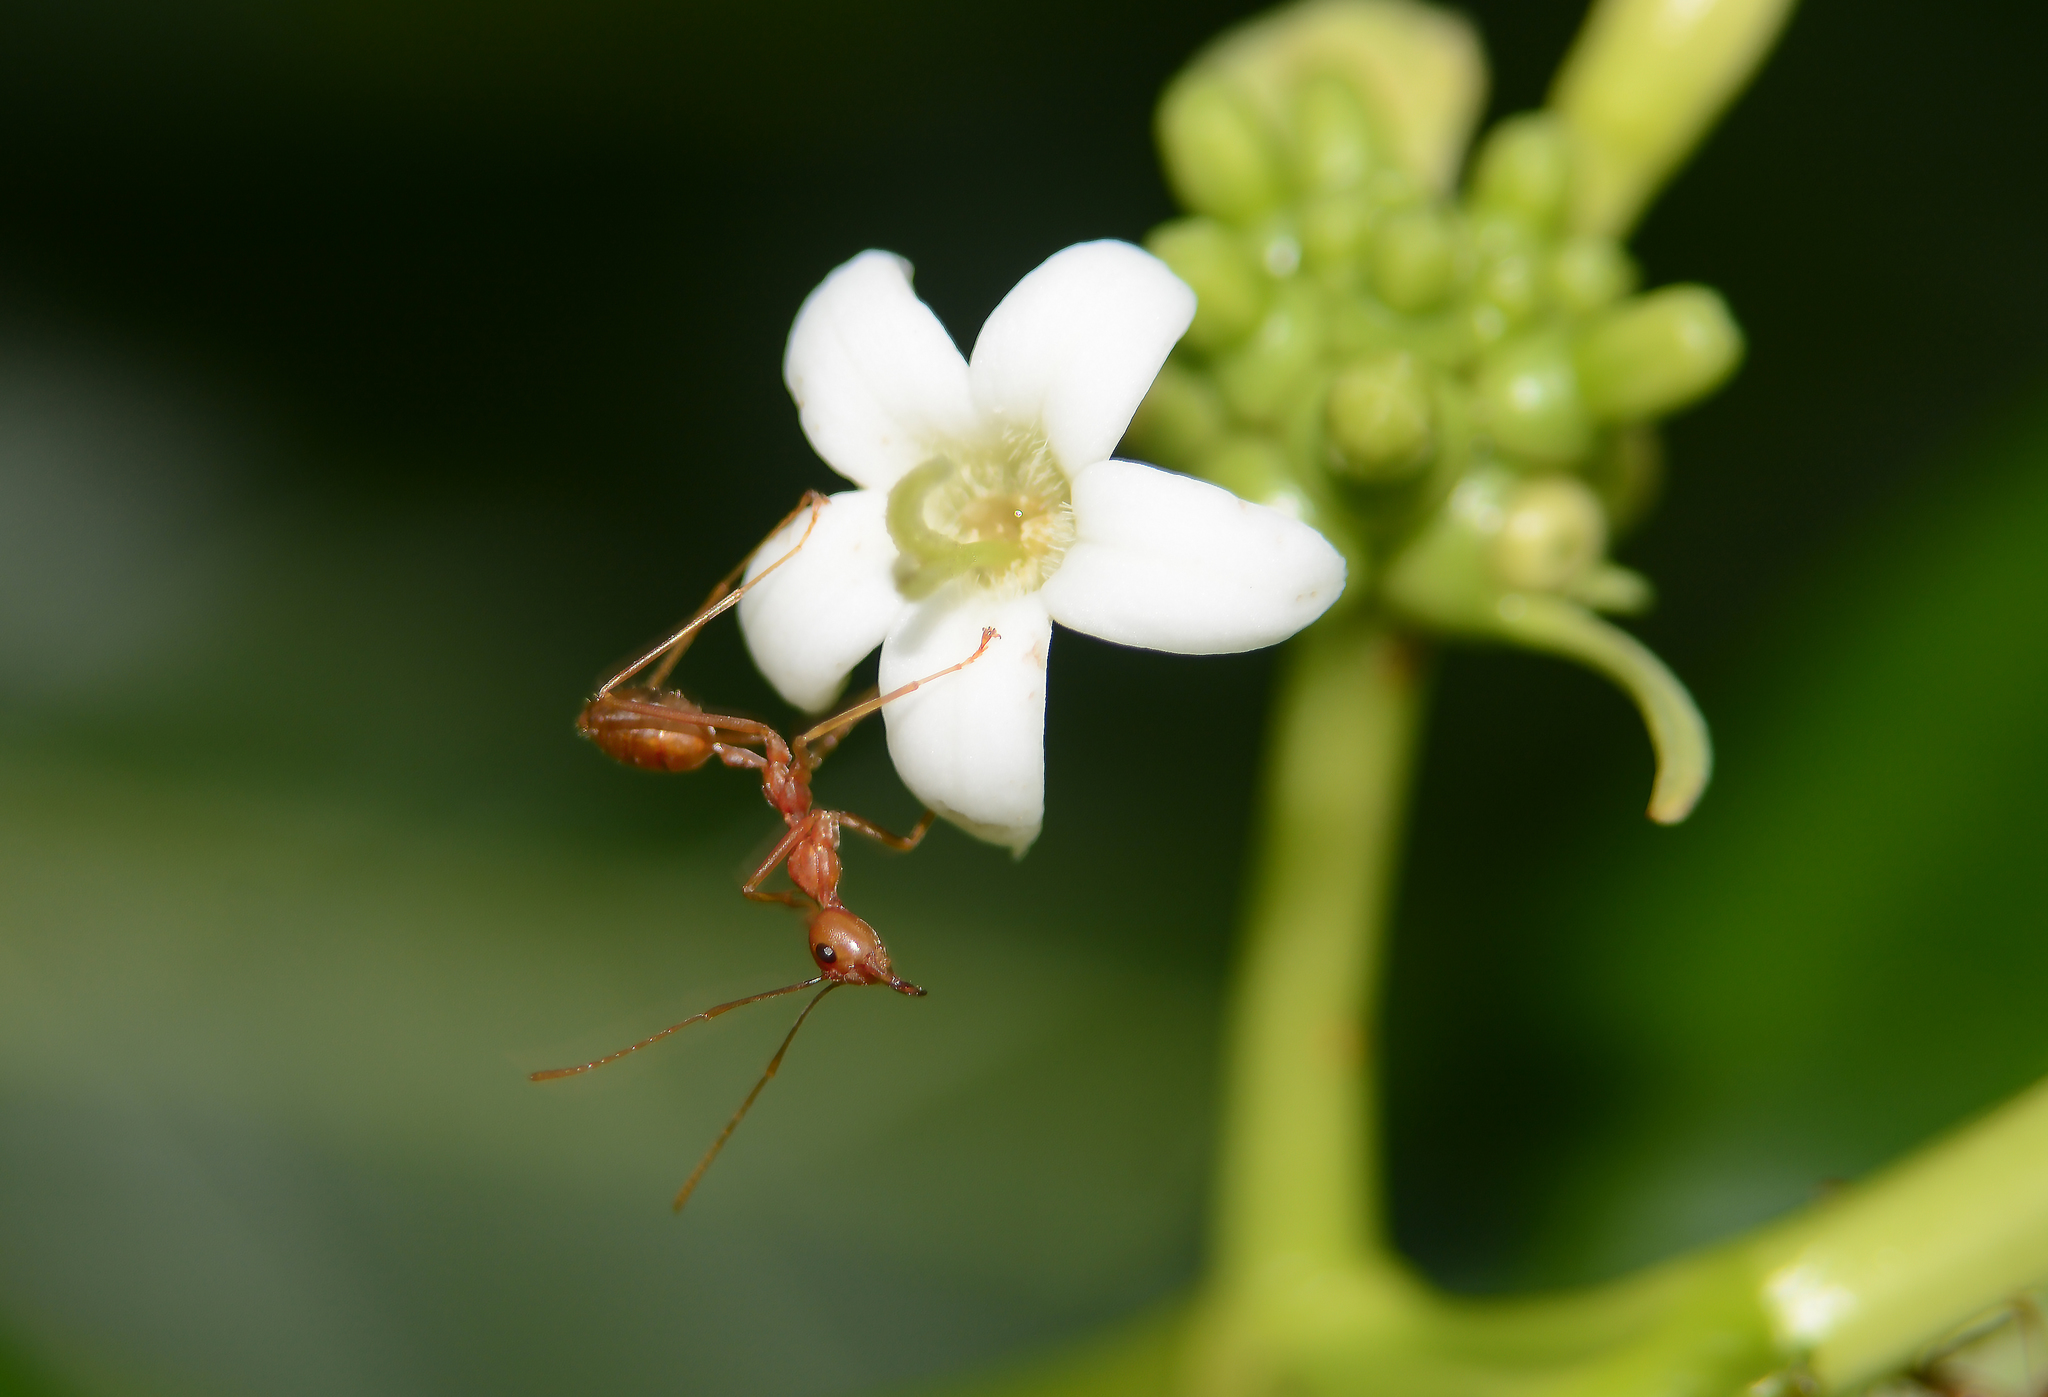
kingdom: Plantae
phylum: Tracheophyta
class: Magnoliopsida
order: Gentianales
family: Rubiaceae
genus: Morinda
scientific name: Morinda citrifolia
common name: Indian-mulberry
